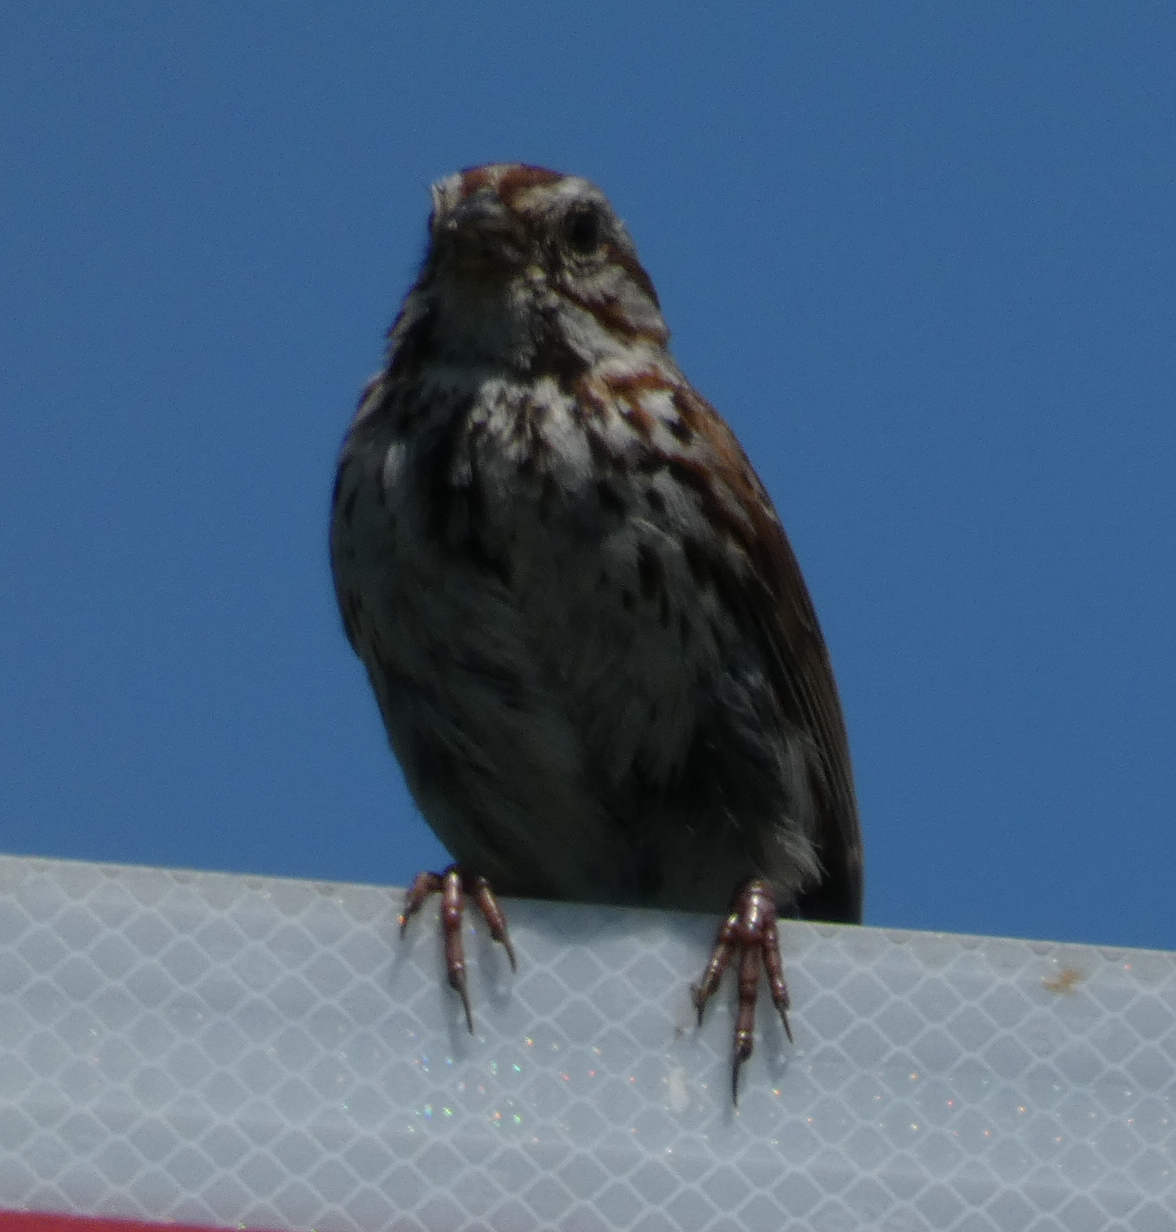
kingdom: Animalia
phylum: Chordata
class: Aves
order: Passeriformes
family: Passerellidae
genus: Melospiza
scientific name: Melospiza melodia
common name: Song sparrow
